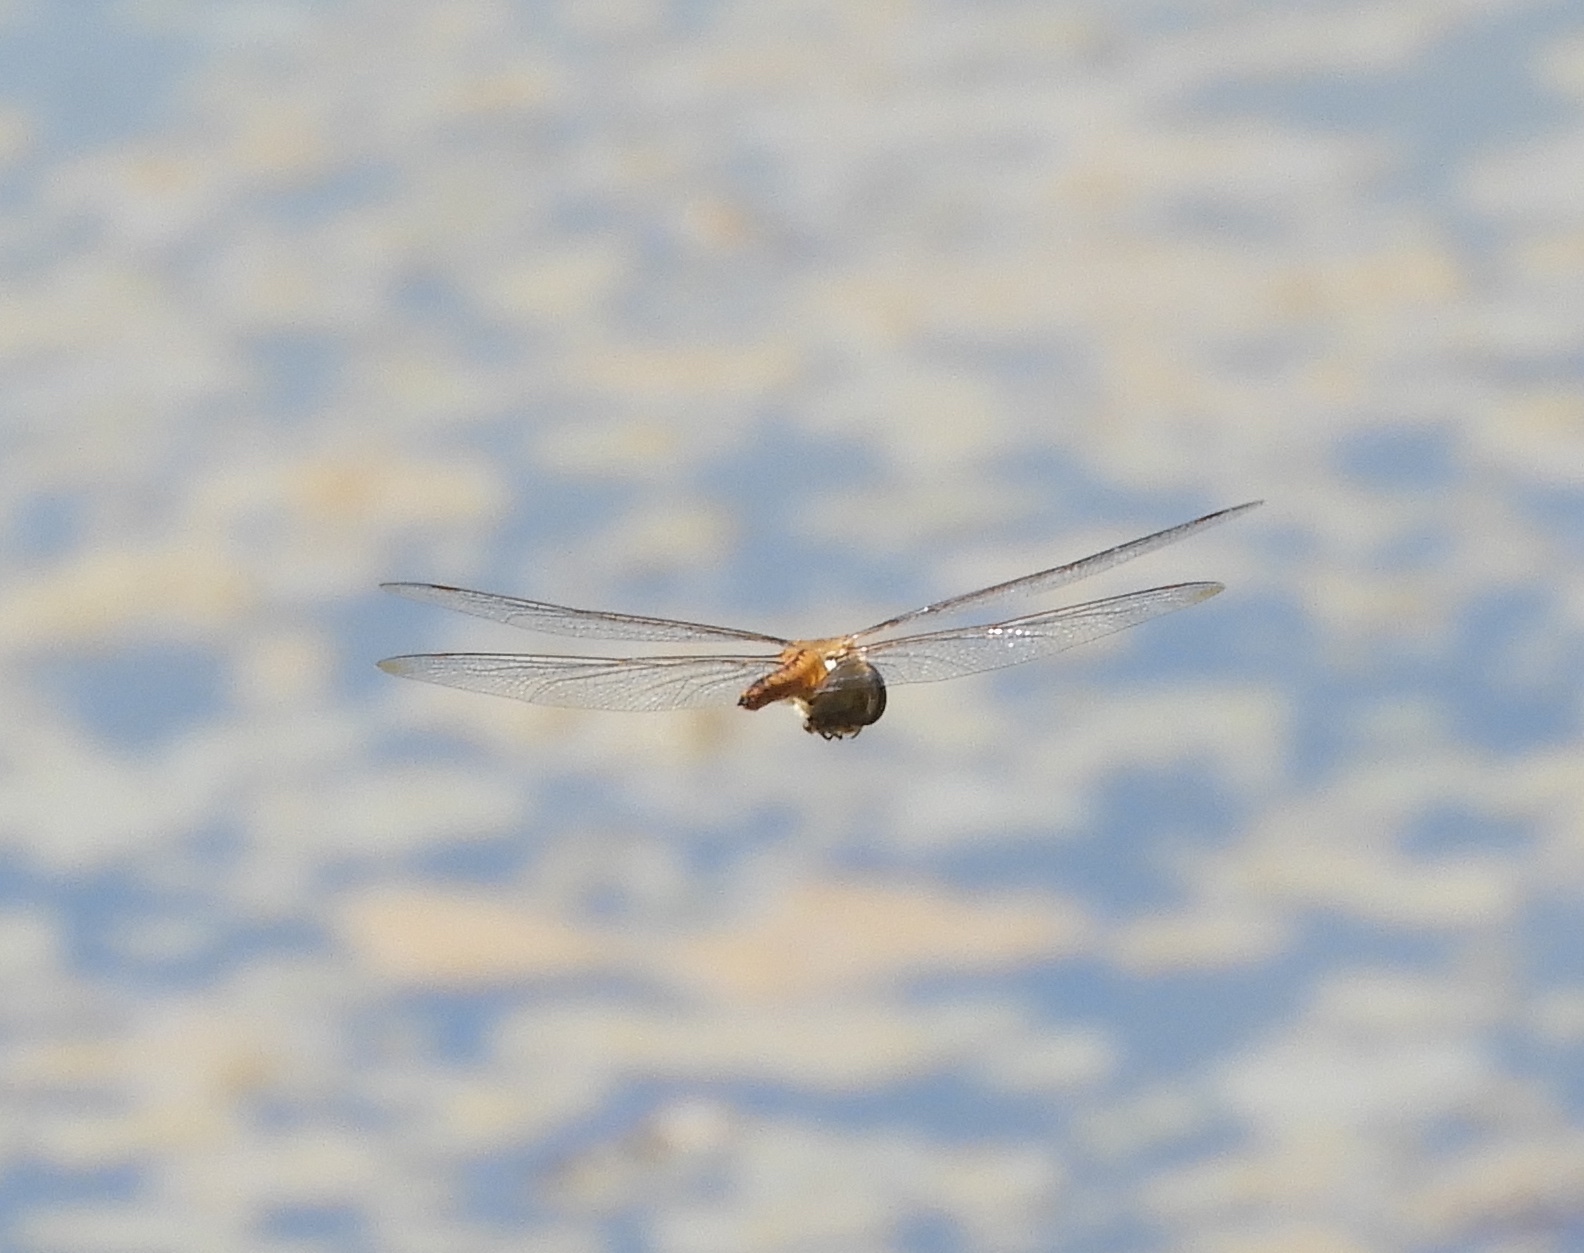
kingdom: Animalia
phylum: Arthropoda
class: Insecta
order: Odonata
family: Libellulidae
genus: Pantala
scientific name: Pantala flavescens
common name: Wandering glider
